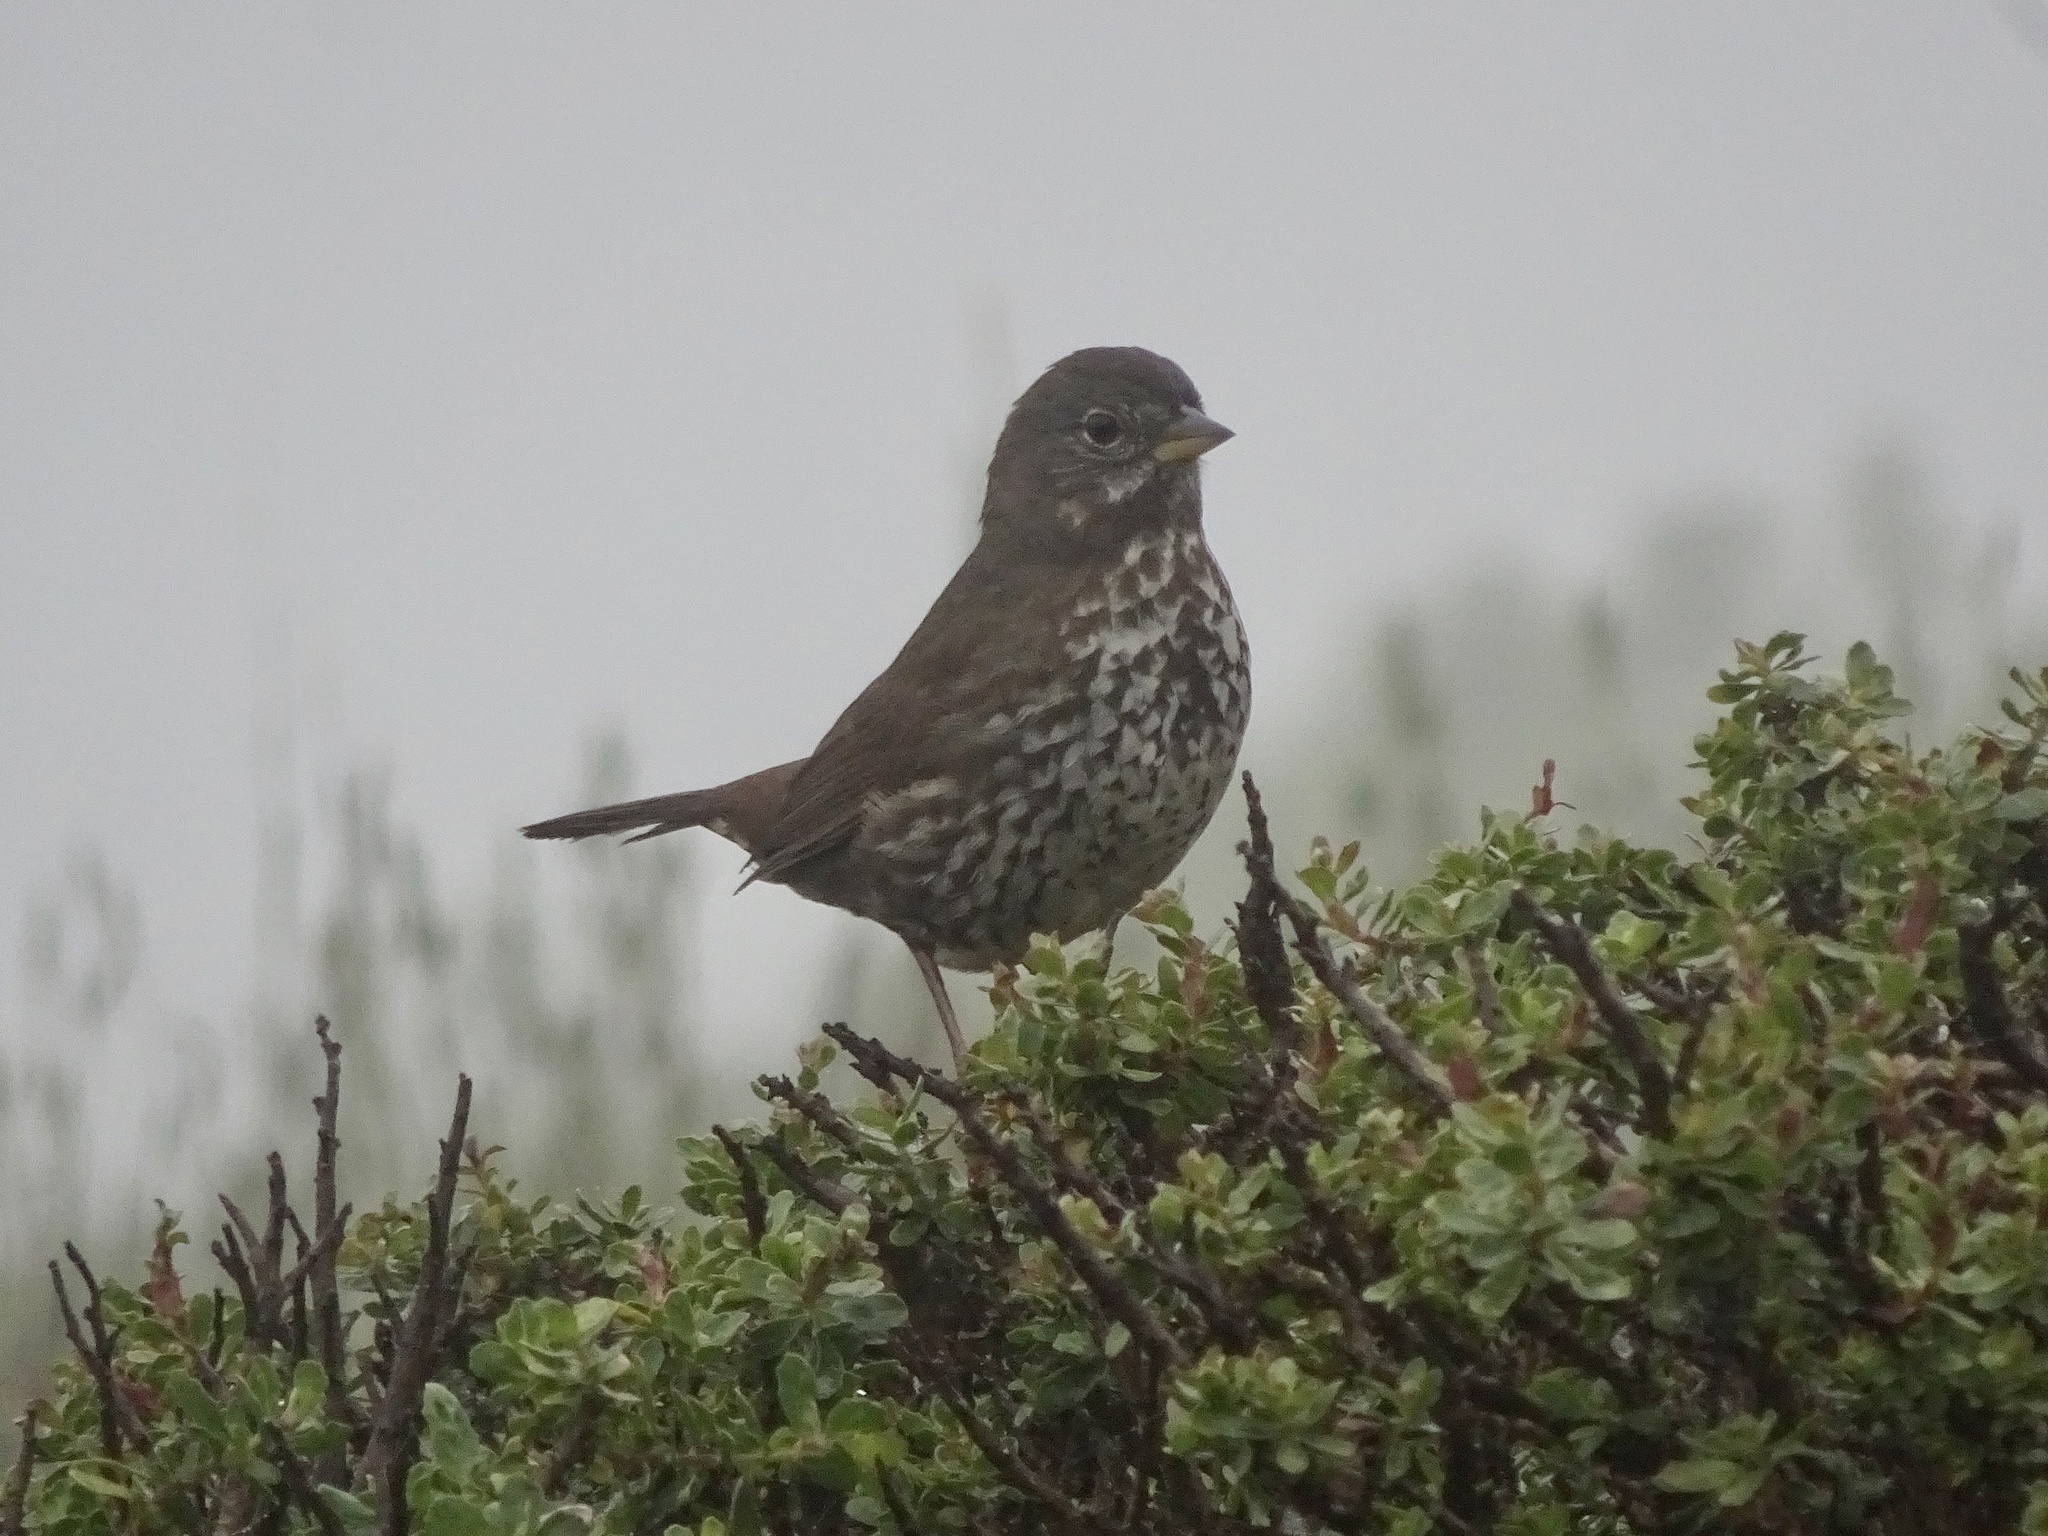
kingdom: Animalia
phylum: Chordata
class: Aves
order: Passeriformes
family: Passerellidae
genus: Passerella
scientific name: Passerella iliaca
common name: Fox sparrow
